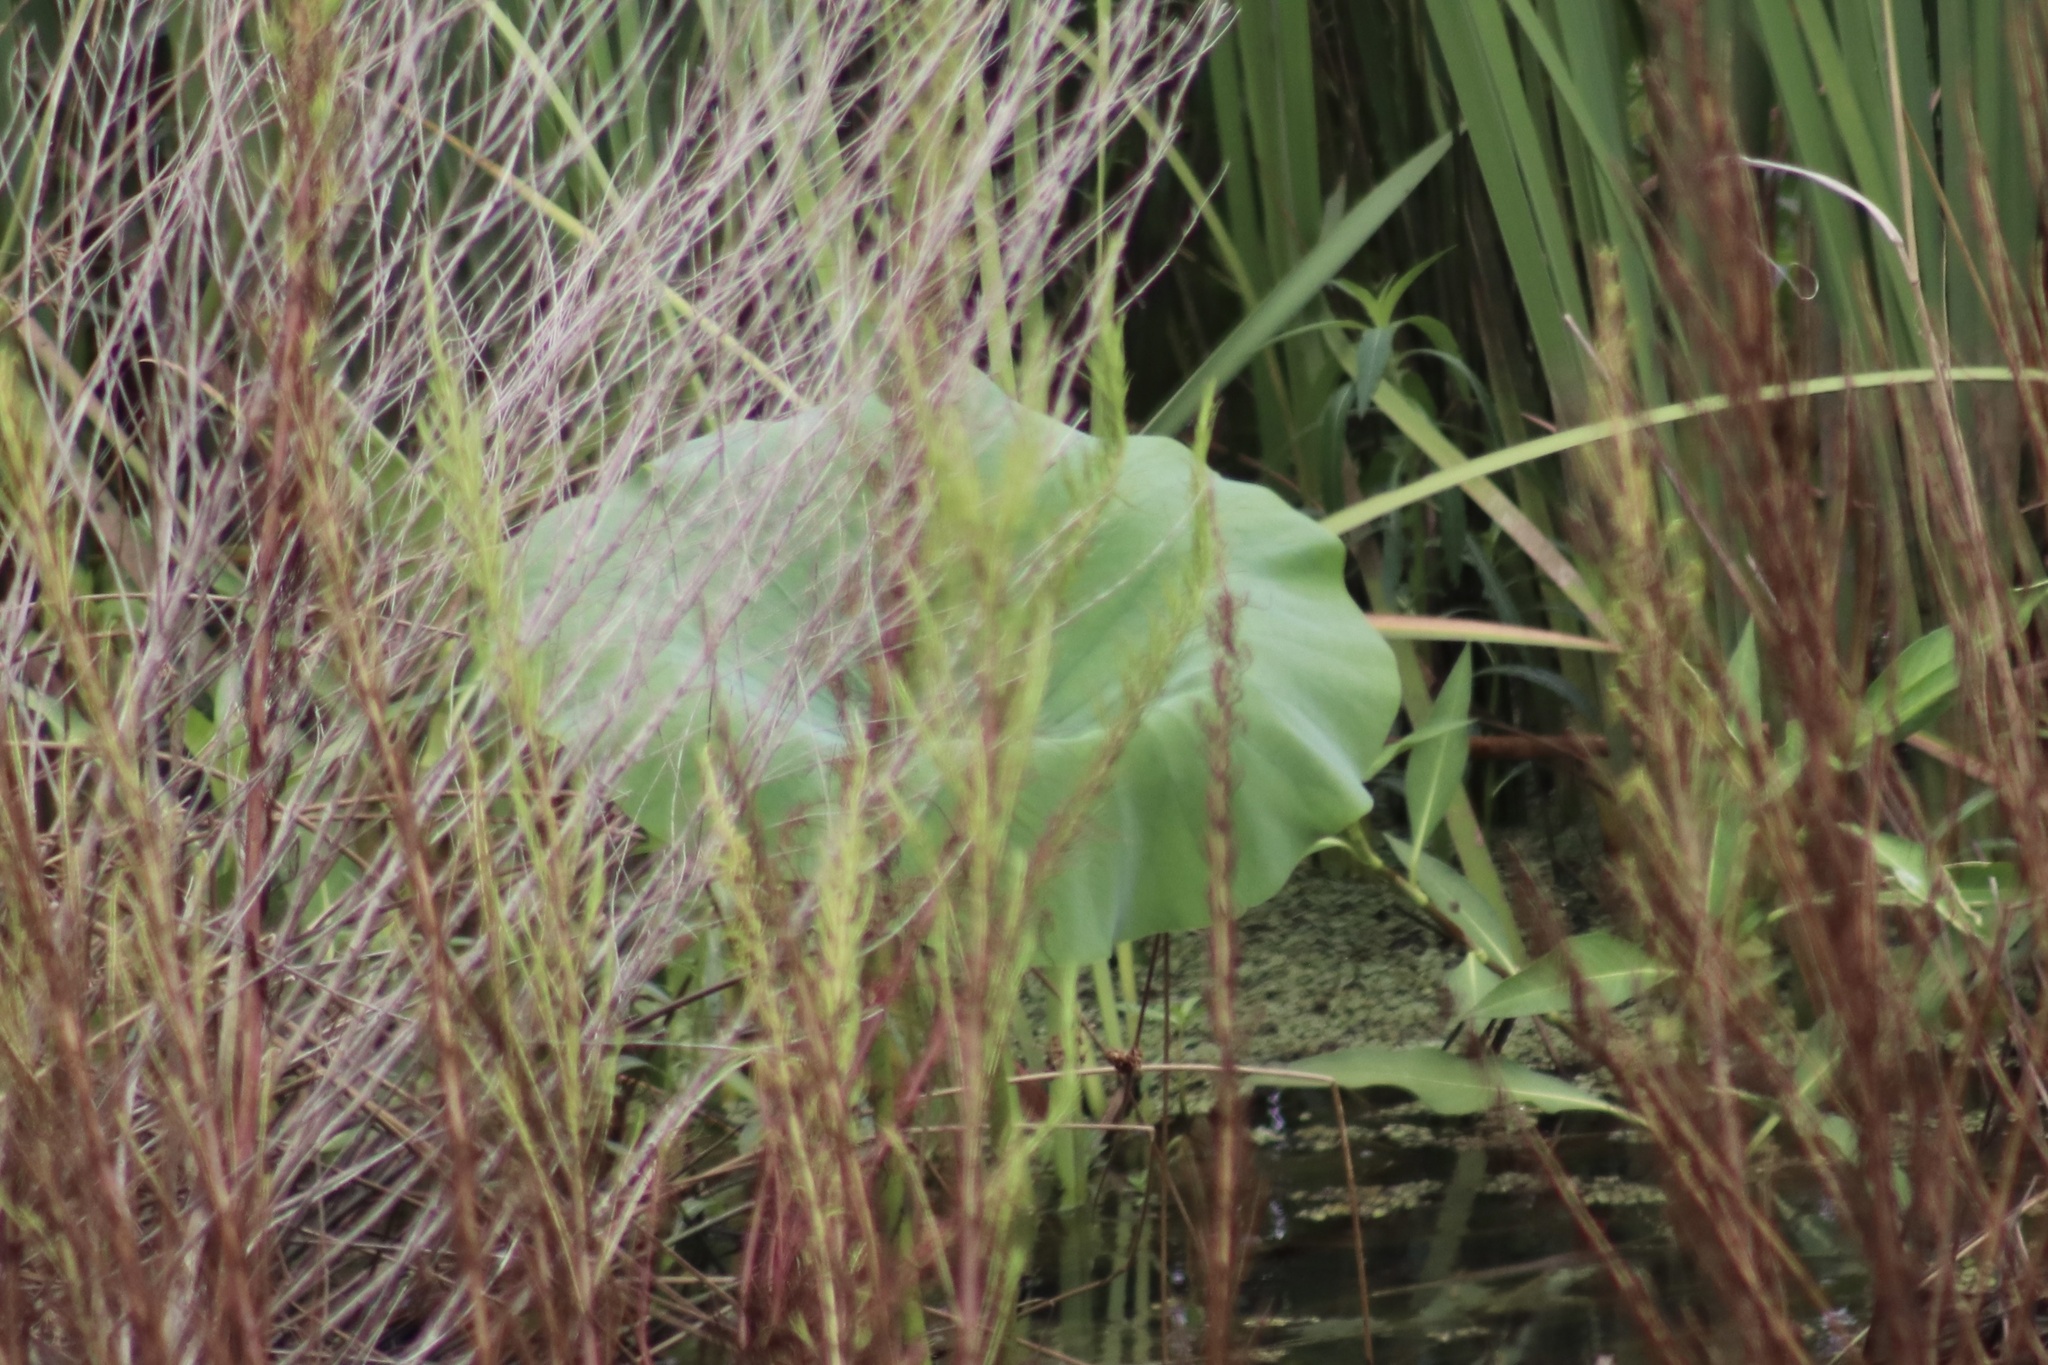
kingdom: Plantae
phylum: Tracheophyta
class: Magnoliopsida
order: Proteales
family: Nelumbonaceae
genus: Nelumbo
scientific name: Nelumbo lutea
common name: American lotus
